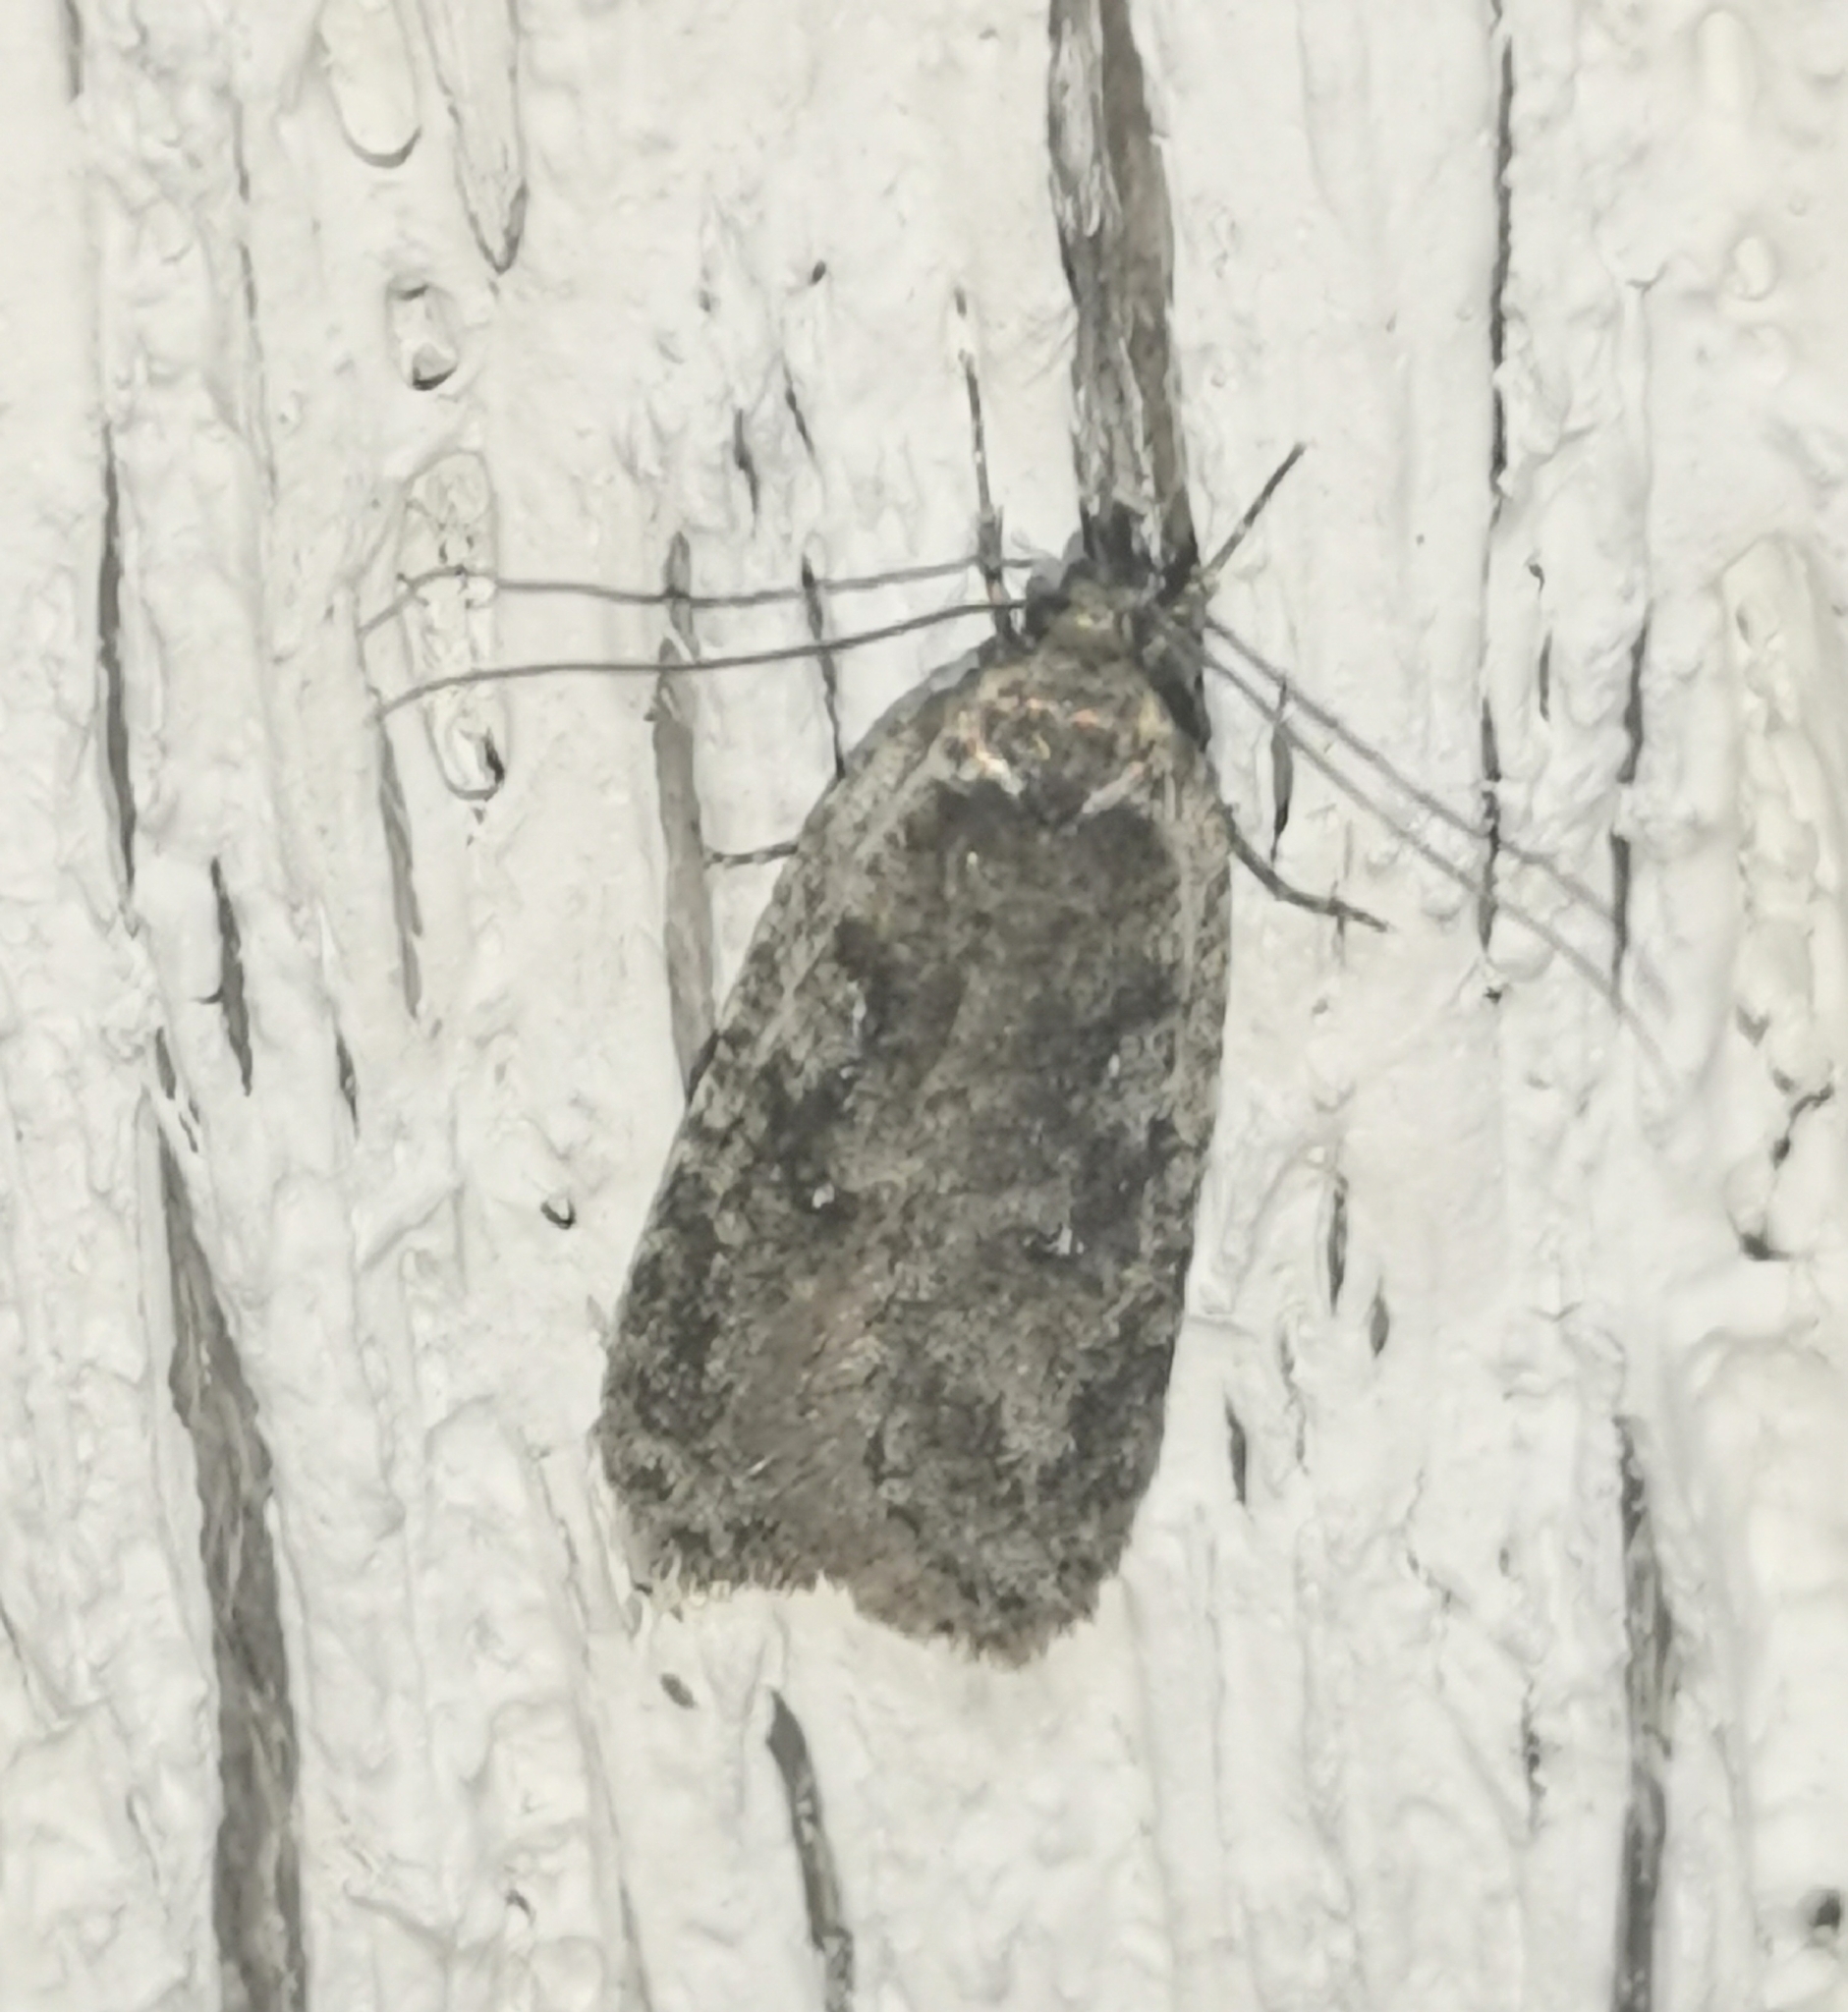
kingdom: Animalia
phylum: Arthropoda
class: Insecta
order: Lepidoptera
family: Depressariidae
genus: Exaeretia
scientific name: Exaeretia ciniflonella
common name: Scotch flat-body
